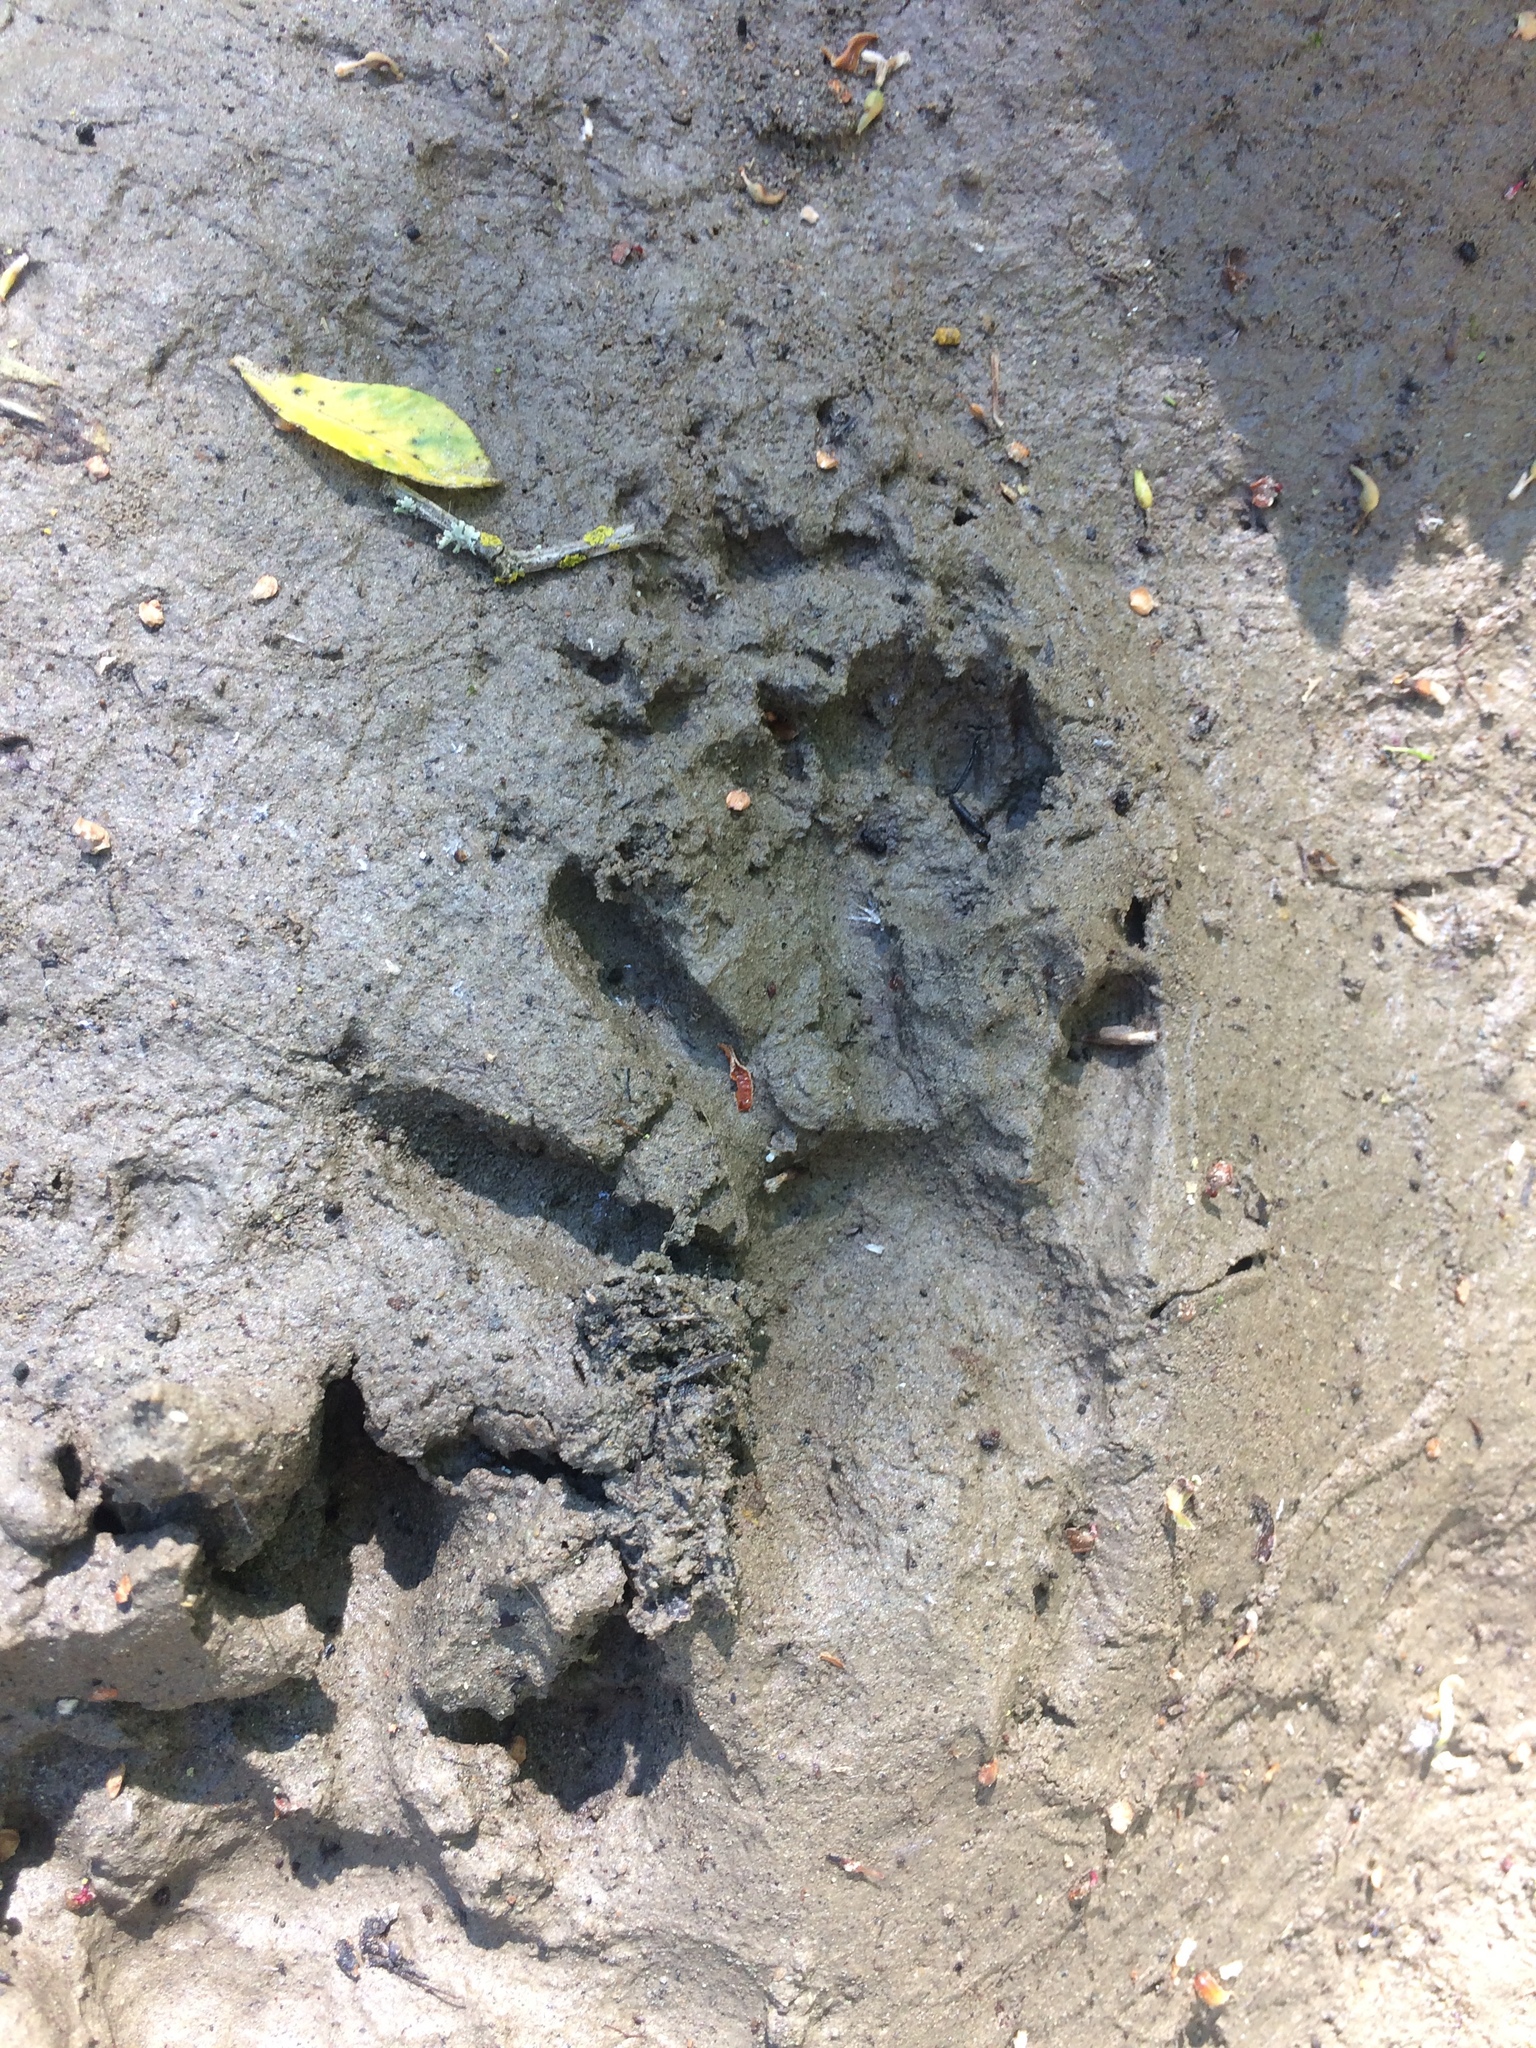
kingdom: Animalia
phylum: Chordata
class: Mammalia
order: Carnivora
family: Procyonidae
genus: Procyon
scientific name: Procyon lotor
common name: Raccoon
